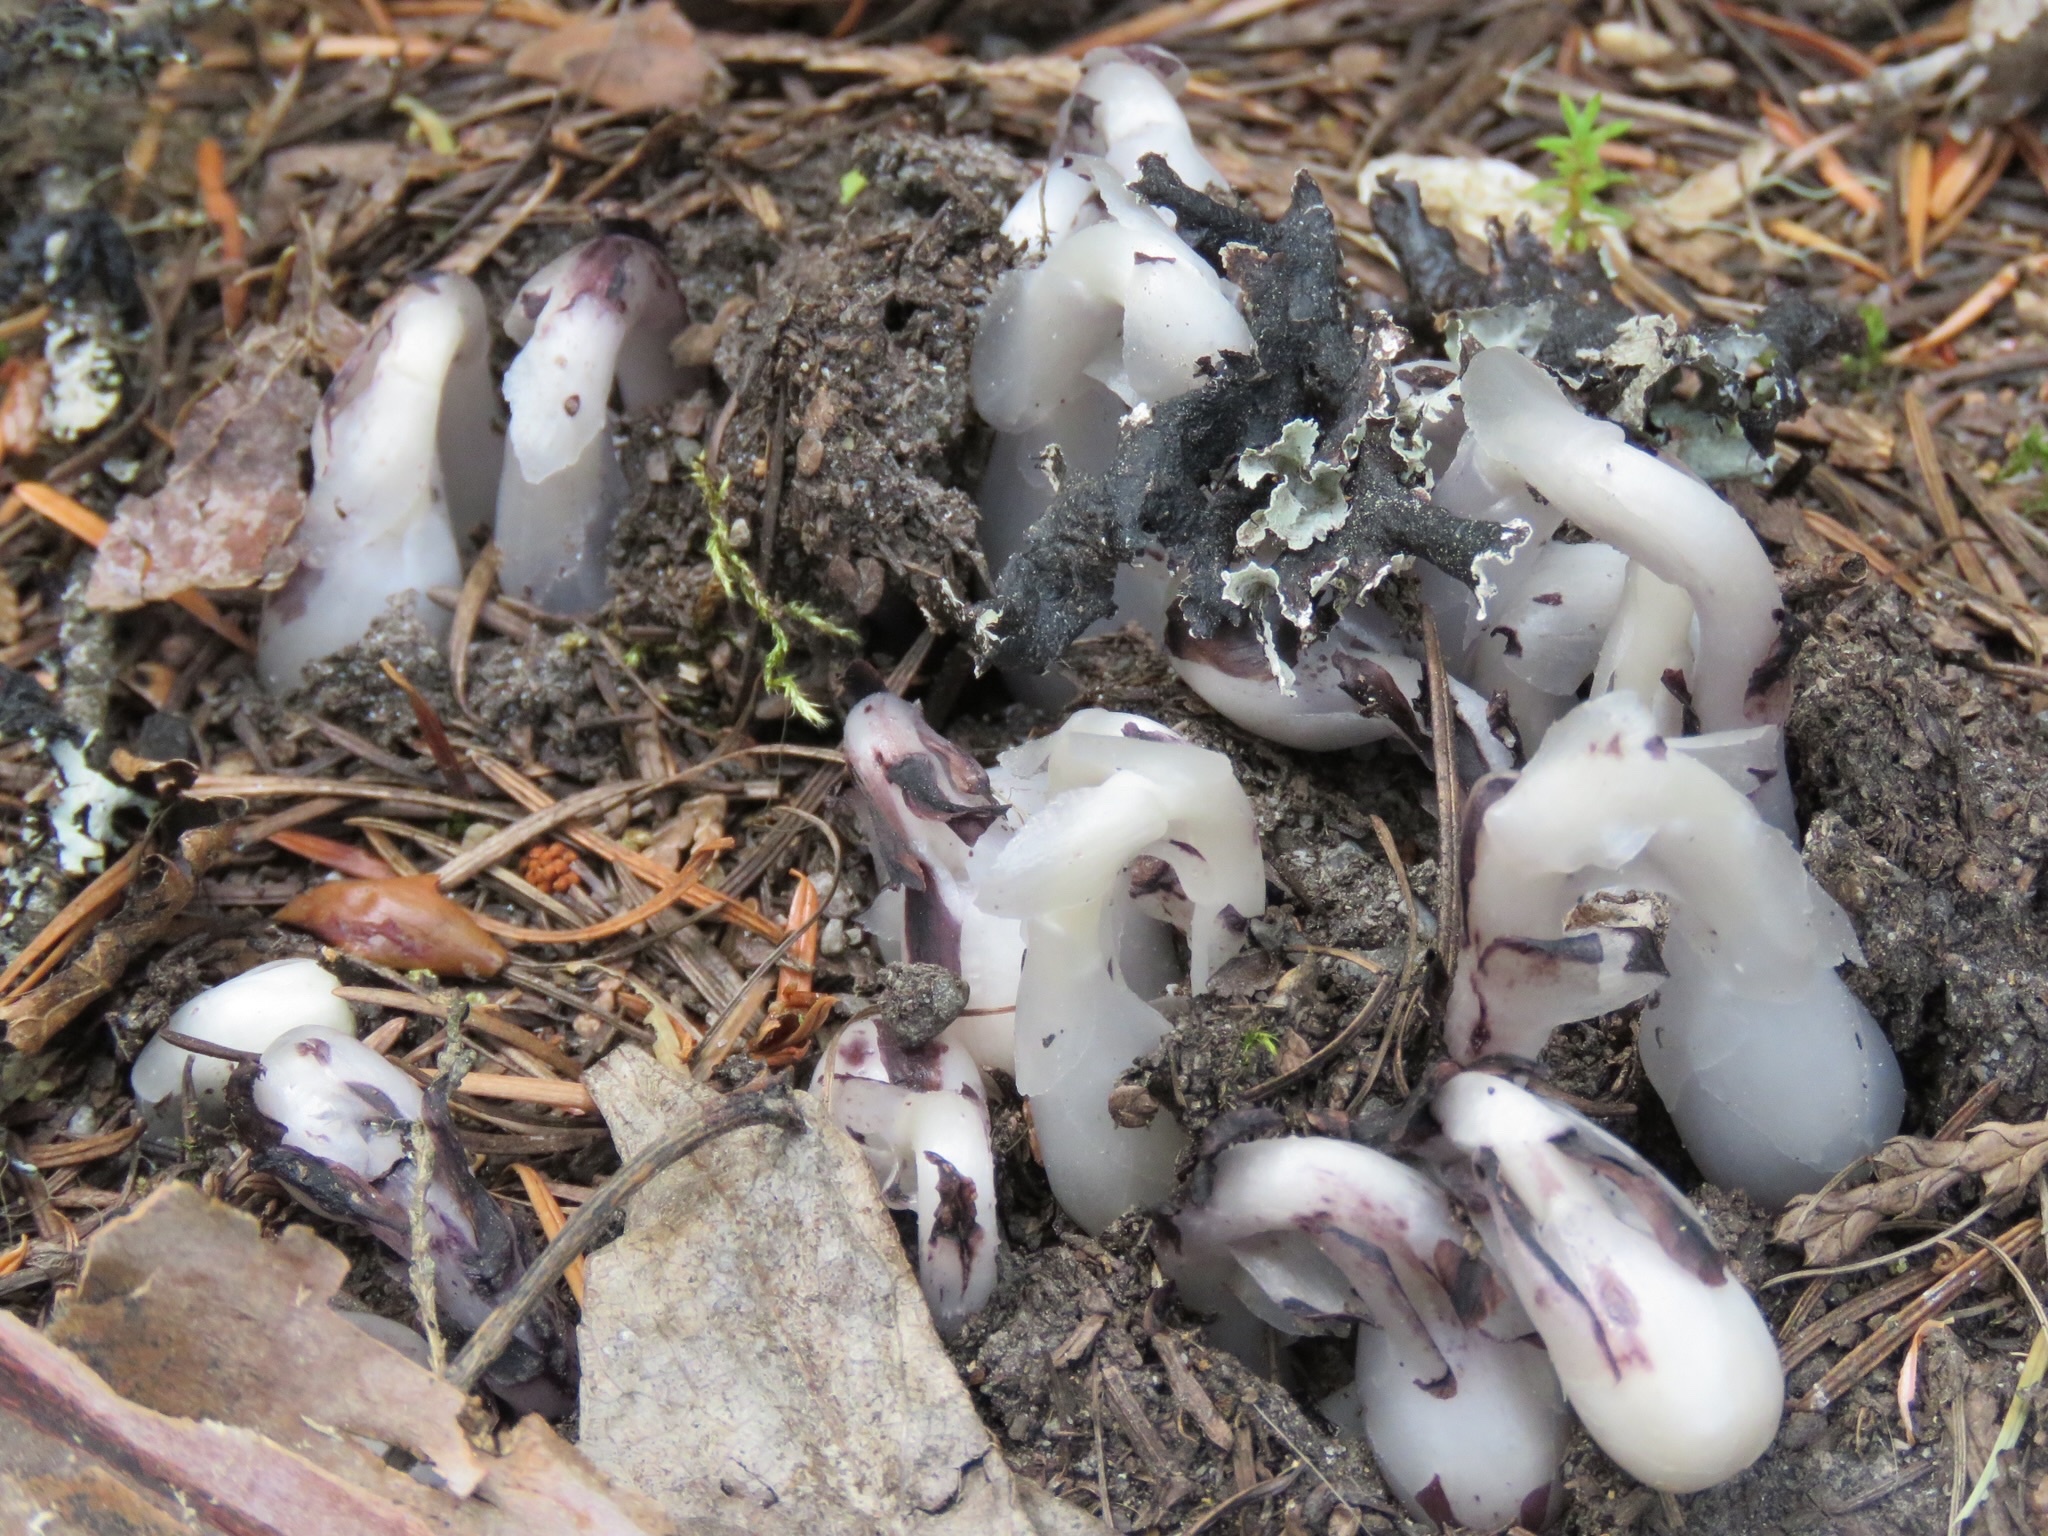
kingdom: Plantae
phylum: Tracheophyta
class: Magnoliopsida
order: Ericales
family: Ericaceae
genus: Monotropa
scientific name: Monotropa uniflora
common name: Convulsion root
